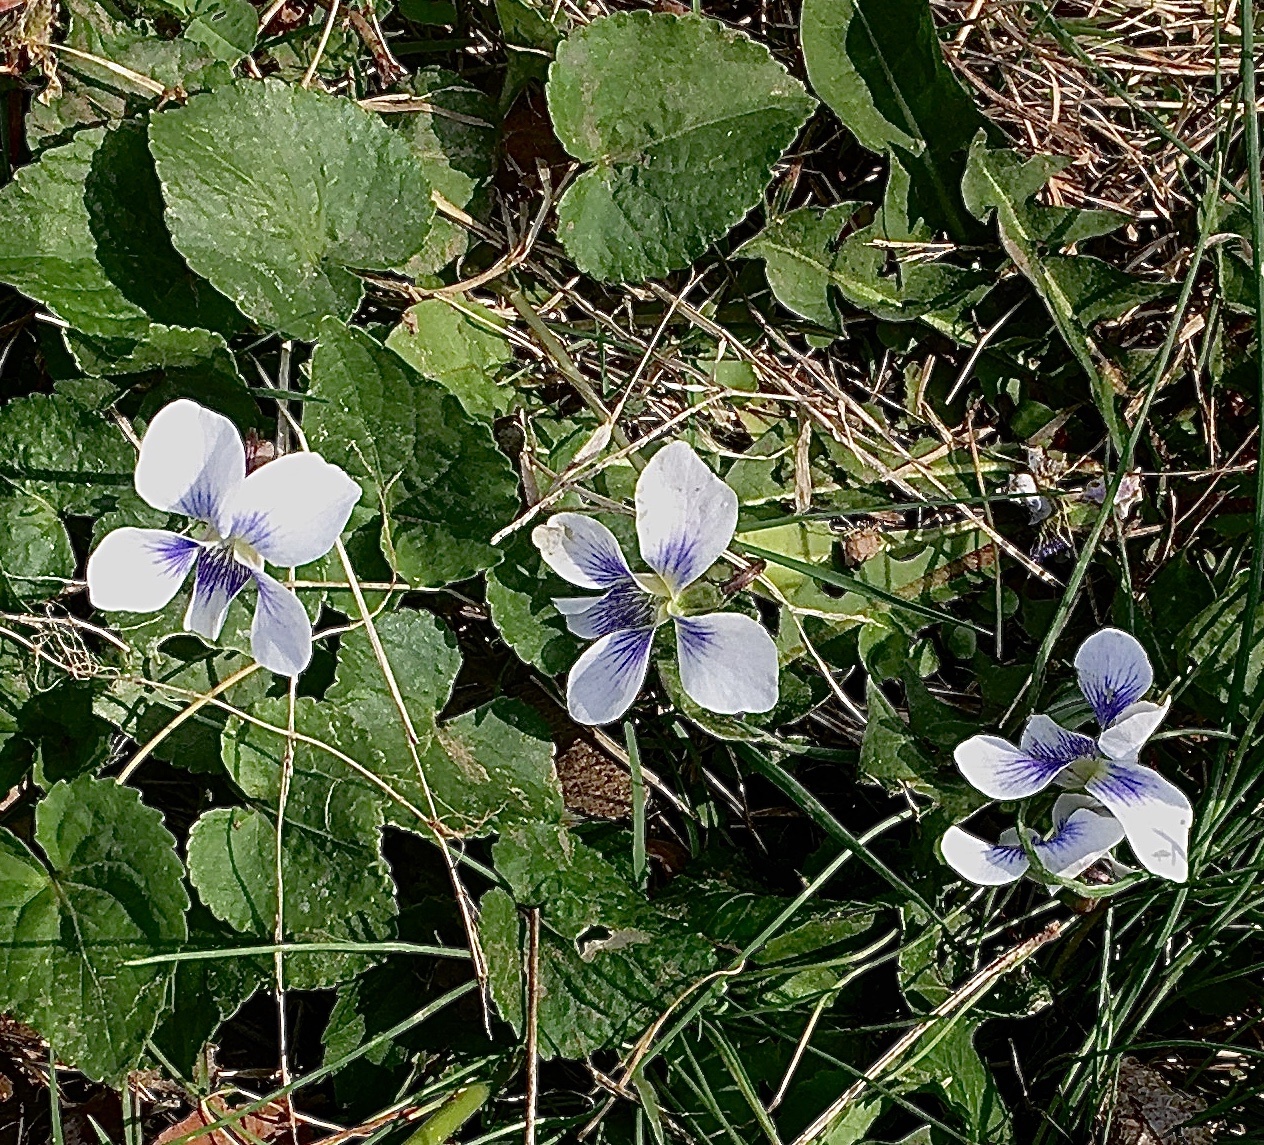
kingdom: Plantae
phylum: Tracheophyta
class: Magnoliopsida
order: Malpighiales
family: Violaceae
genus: Viola
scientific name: Viola sororia
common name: Dooryard violet
